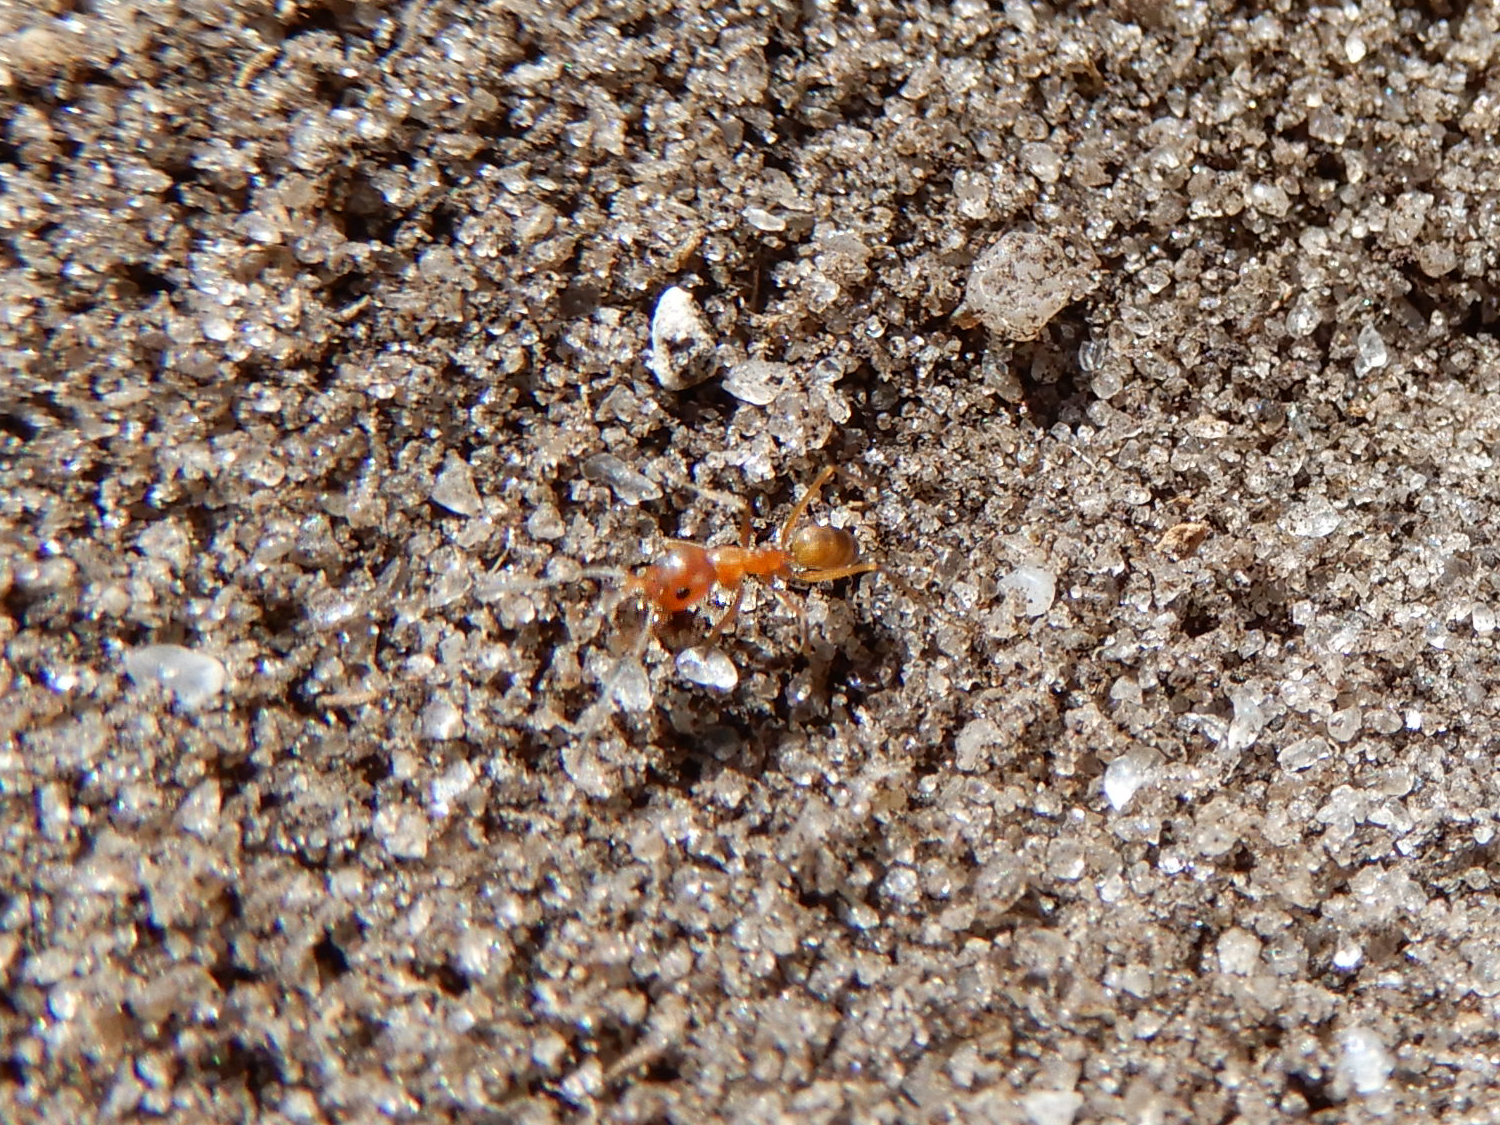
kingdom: Animalia
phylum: Arthropoda
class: Insecta
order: Hymenoptera
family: Formicidae
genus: Dorymyrmex
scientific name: Dorymyrmex bureni
